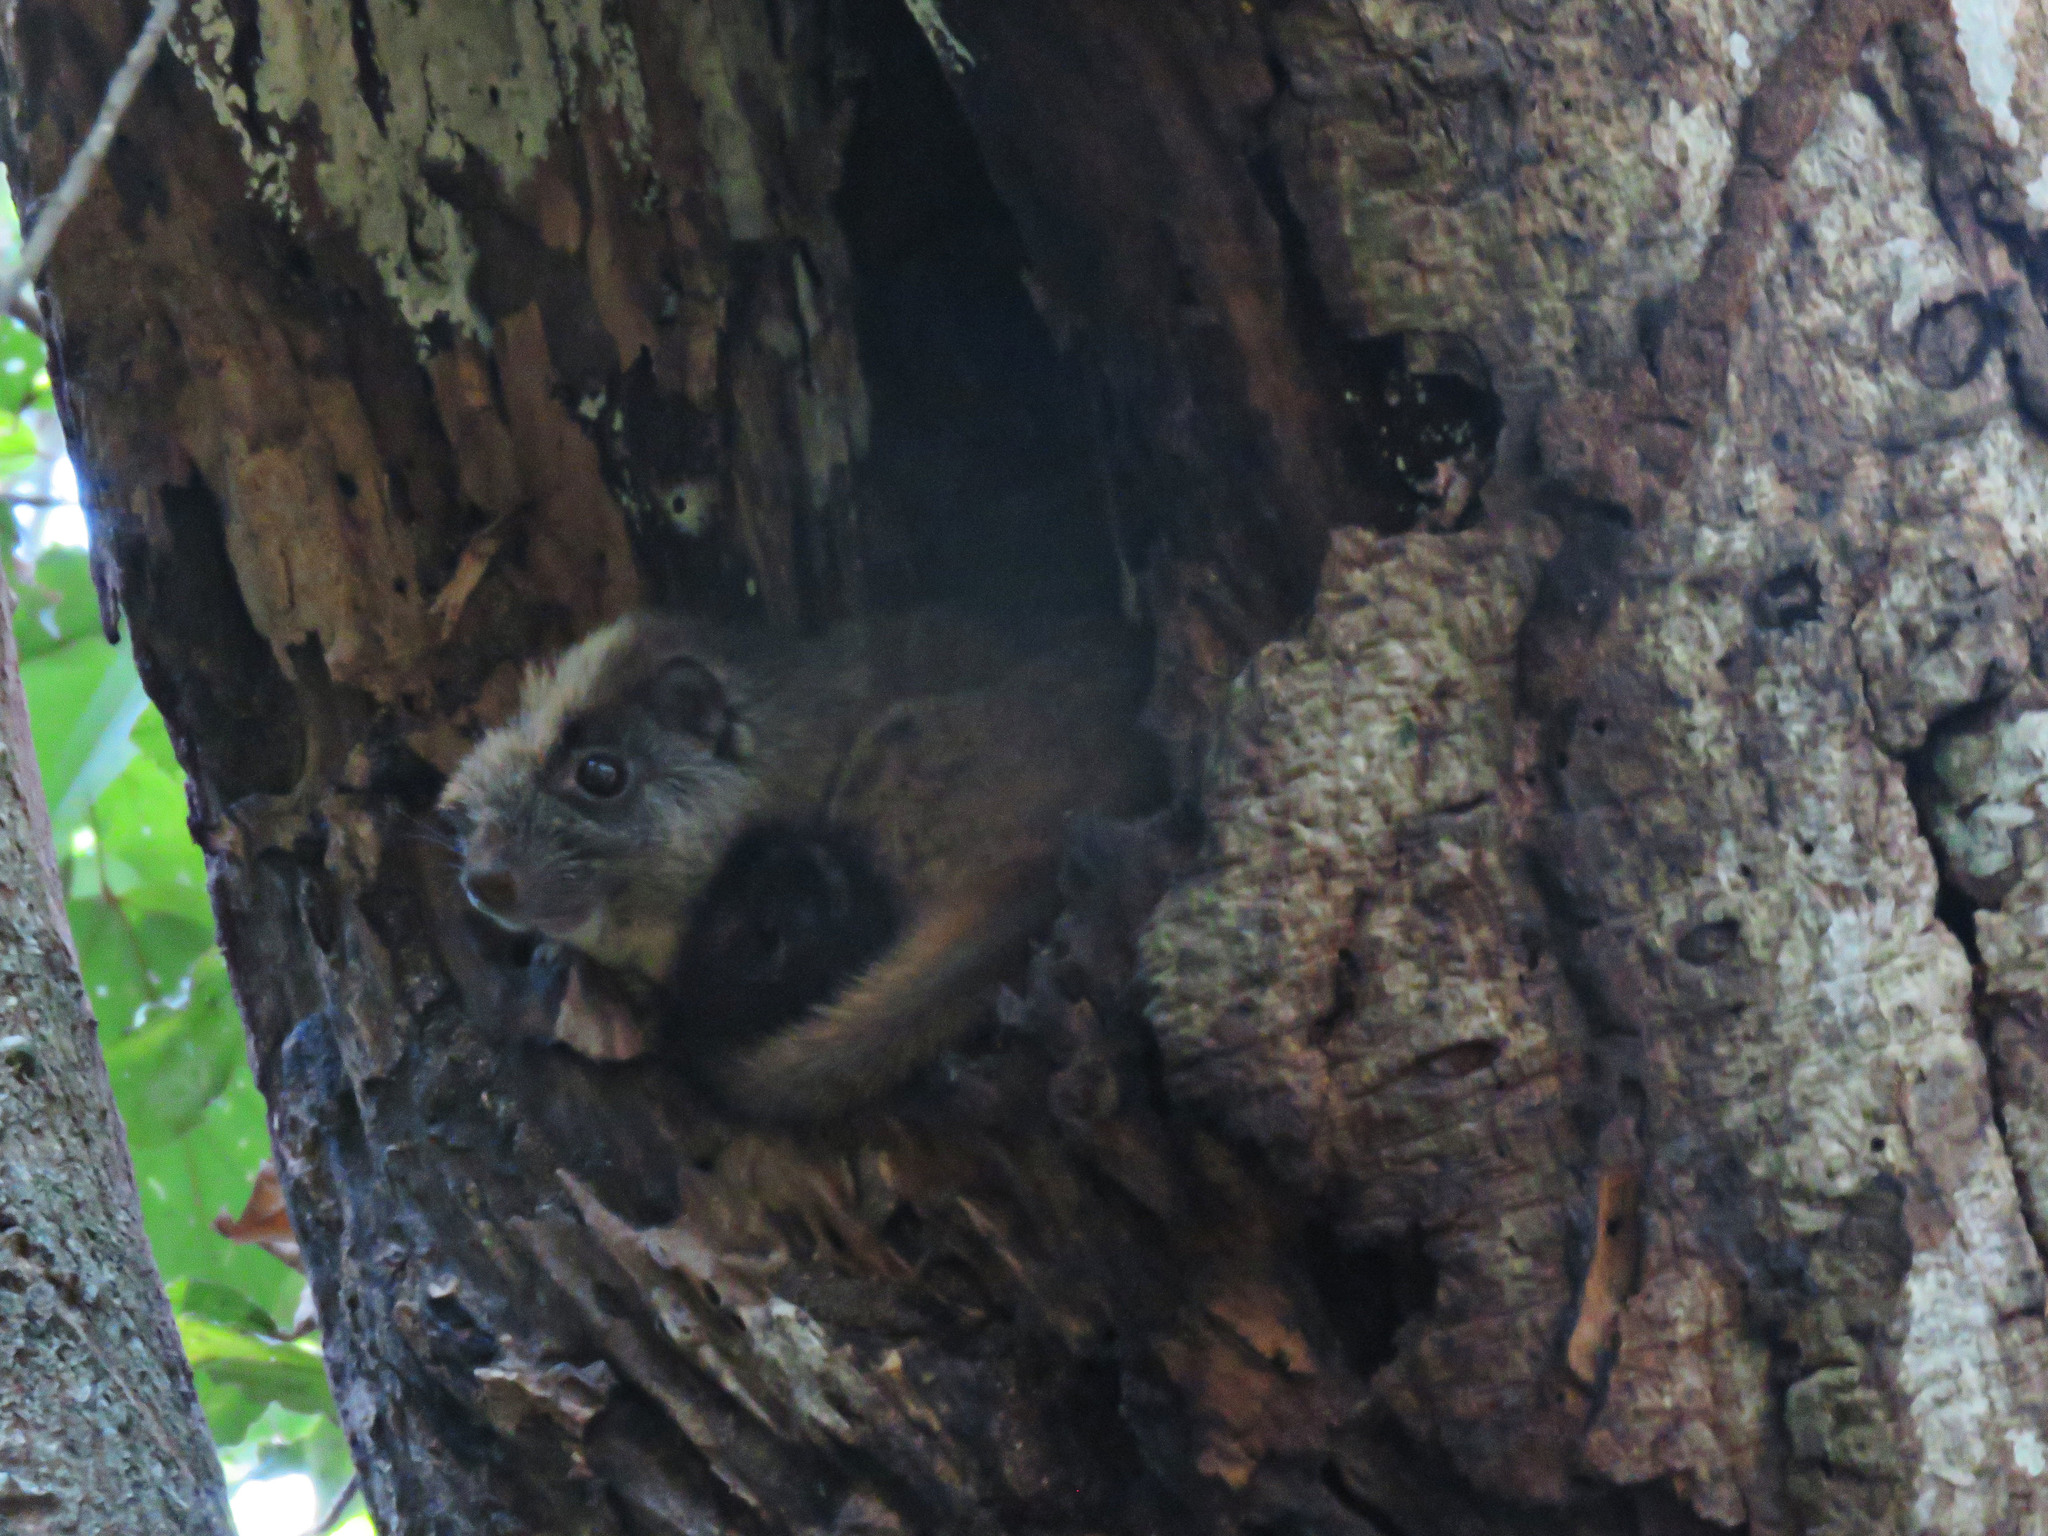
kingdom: Animalia
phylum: Chordata
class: Mammalia
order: Rodentia
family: Echimyidae
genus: Isothrix
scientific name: Isothrix bistriata
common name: Yellow-crowned brush-tailed rat
